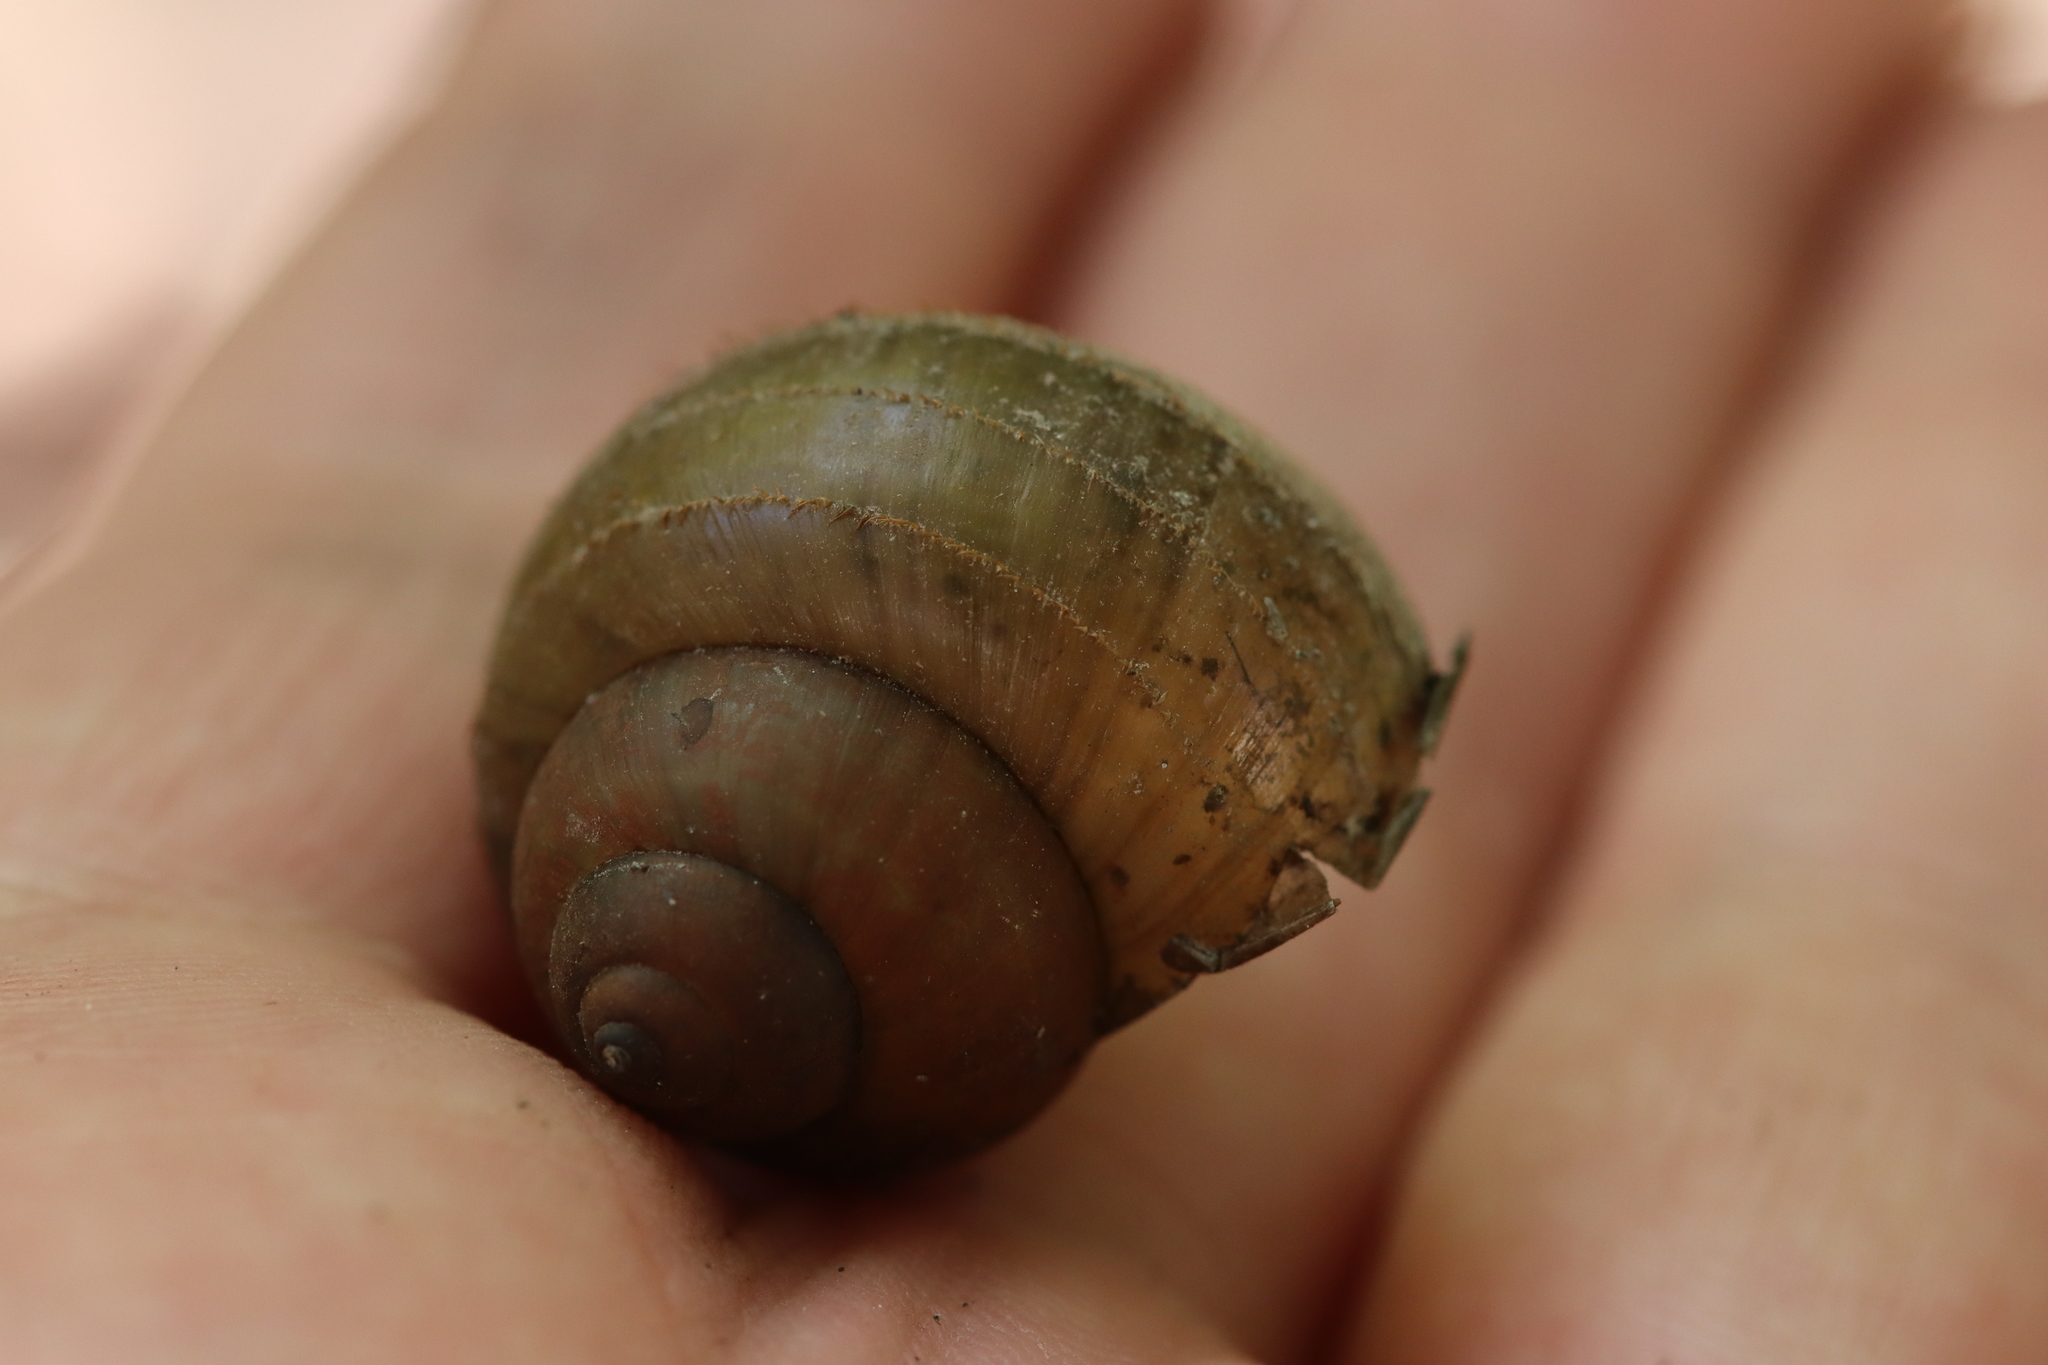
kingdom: Animalia
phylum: Mollusca
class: Gastropoda
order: Architaenioglossa
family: Viviparidae
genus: Cipangopaludina
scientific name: Cipangopaludina chinensis
